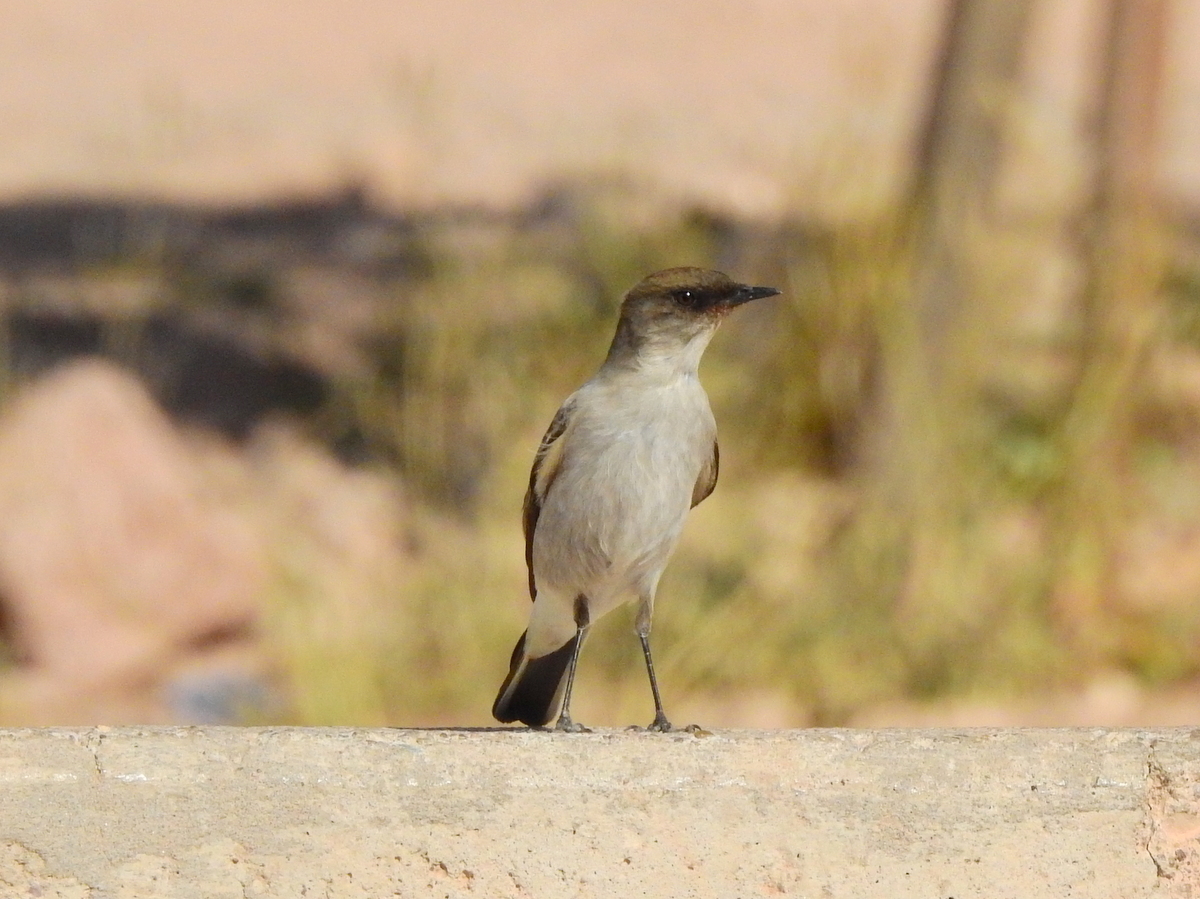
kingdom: Animalia
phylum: Chordata
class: Aves
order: Passeriformes
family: Tyrannidae
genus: Muscisaxicola
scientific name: Muscisaxicola maclovianus
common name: Dark-faced ground tyrant
